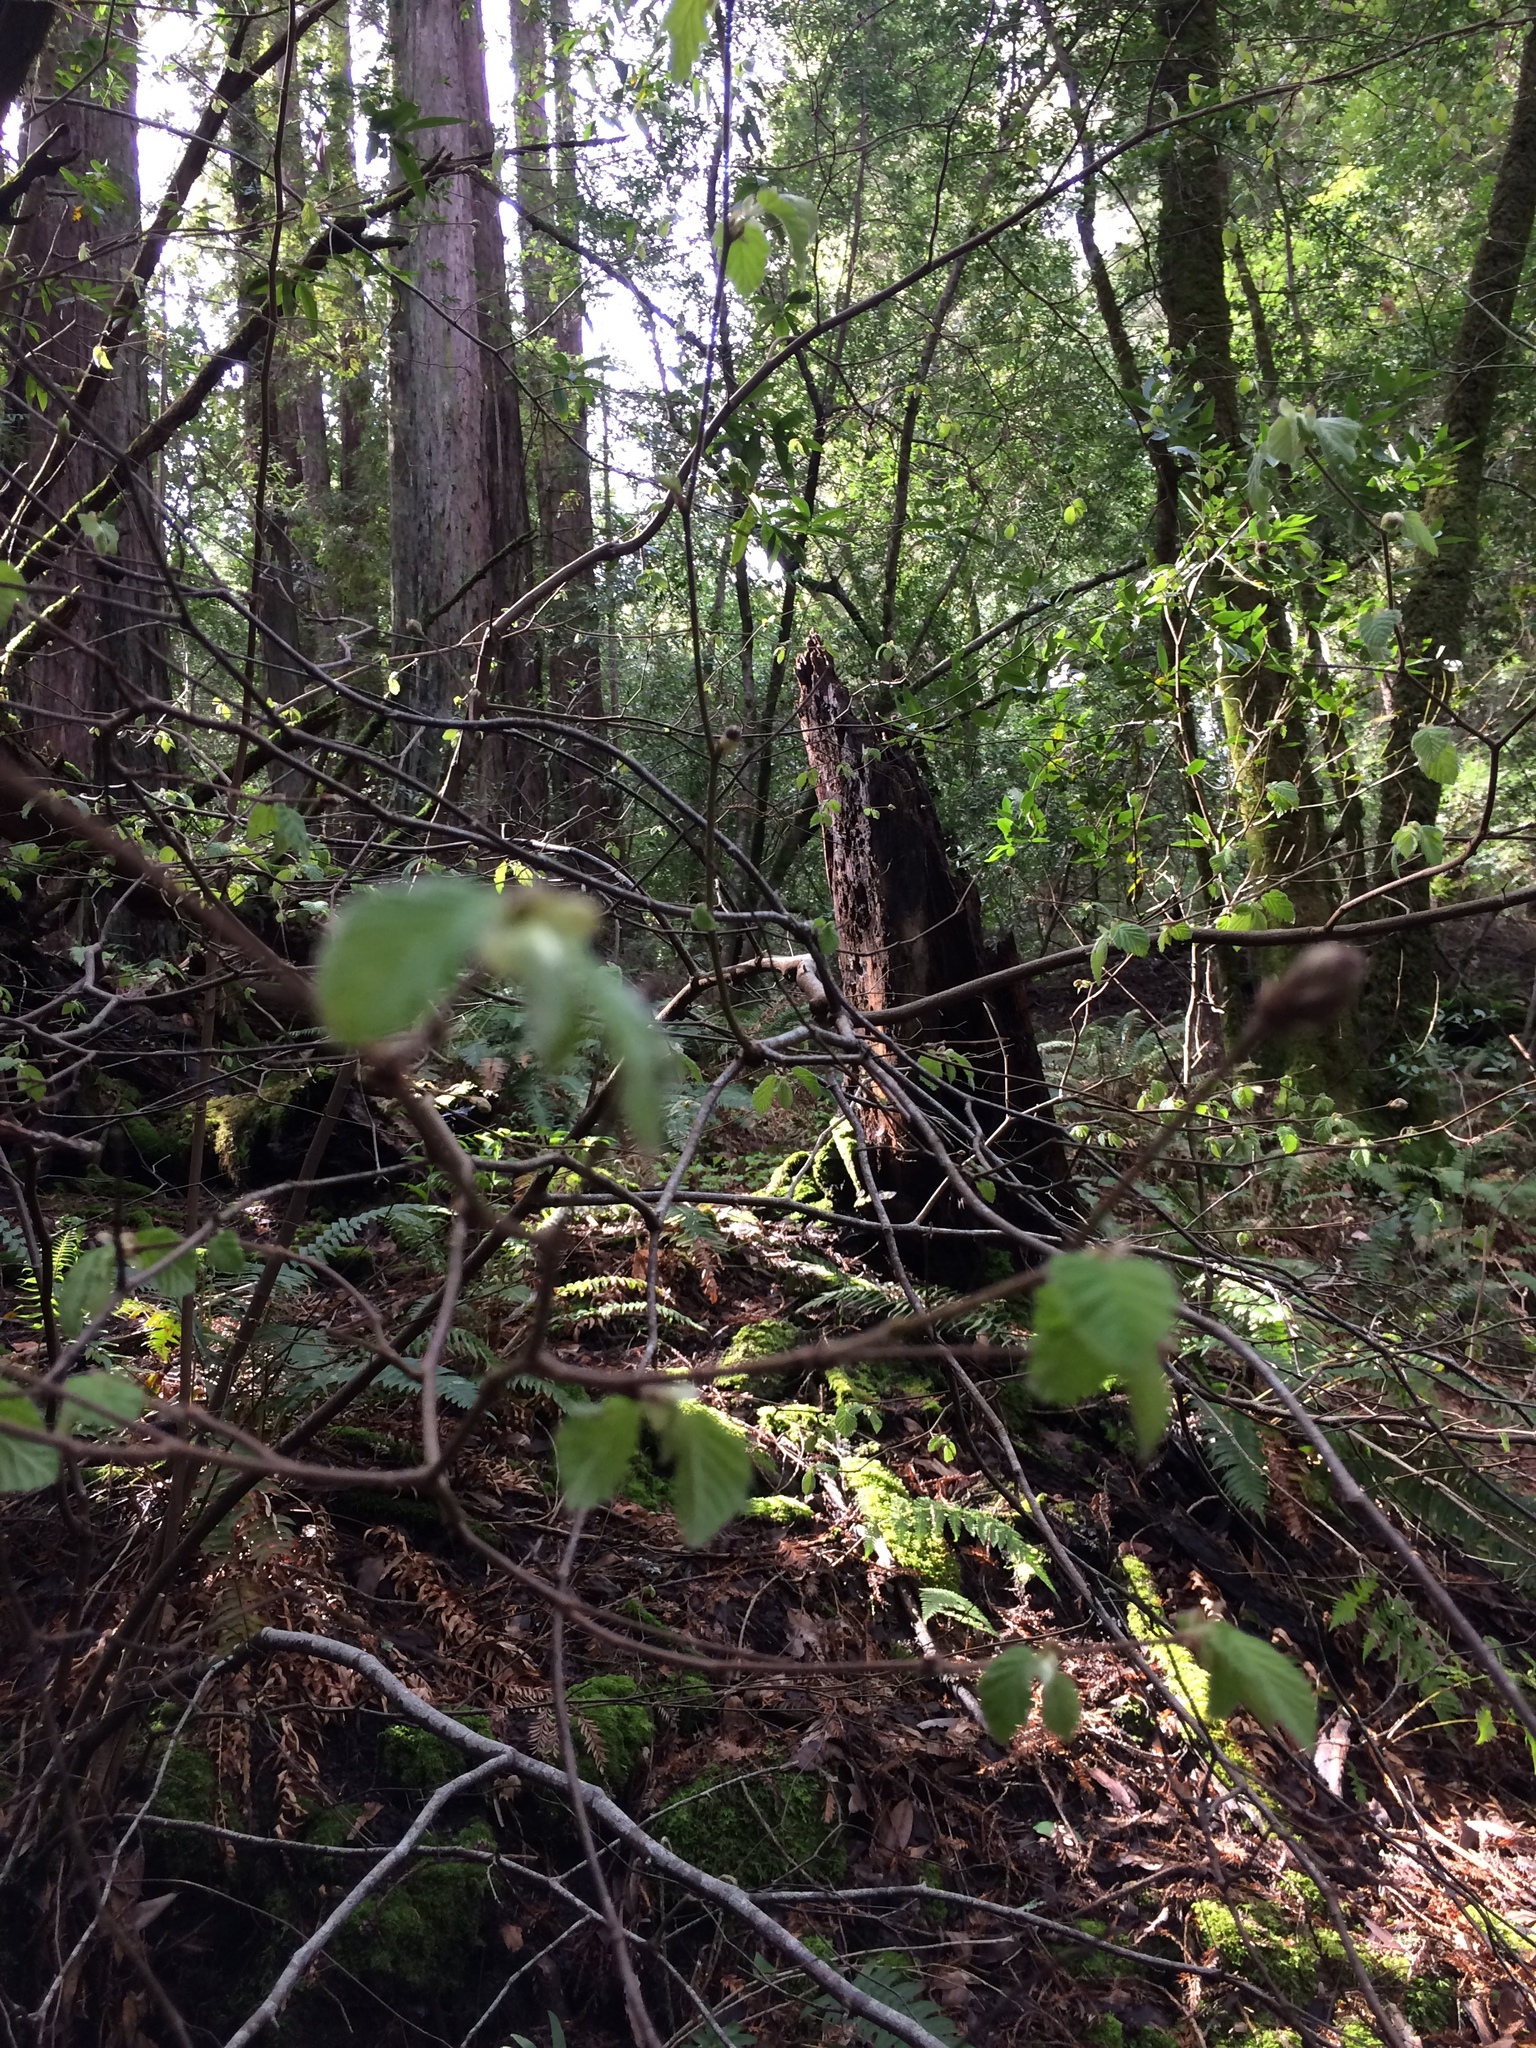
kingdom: Plantae
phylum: Tracheophyta
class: Magnoliopsida
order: Fagales
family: Betulaceae
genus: Corylus
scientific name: Corylus cornuta
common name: Beaked hazel
